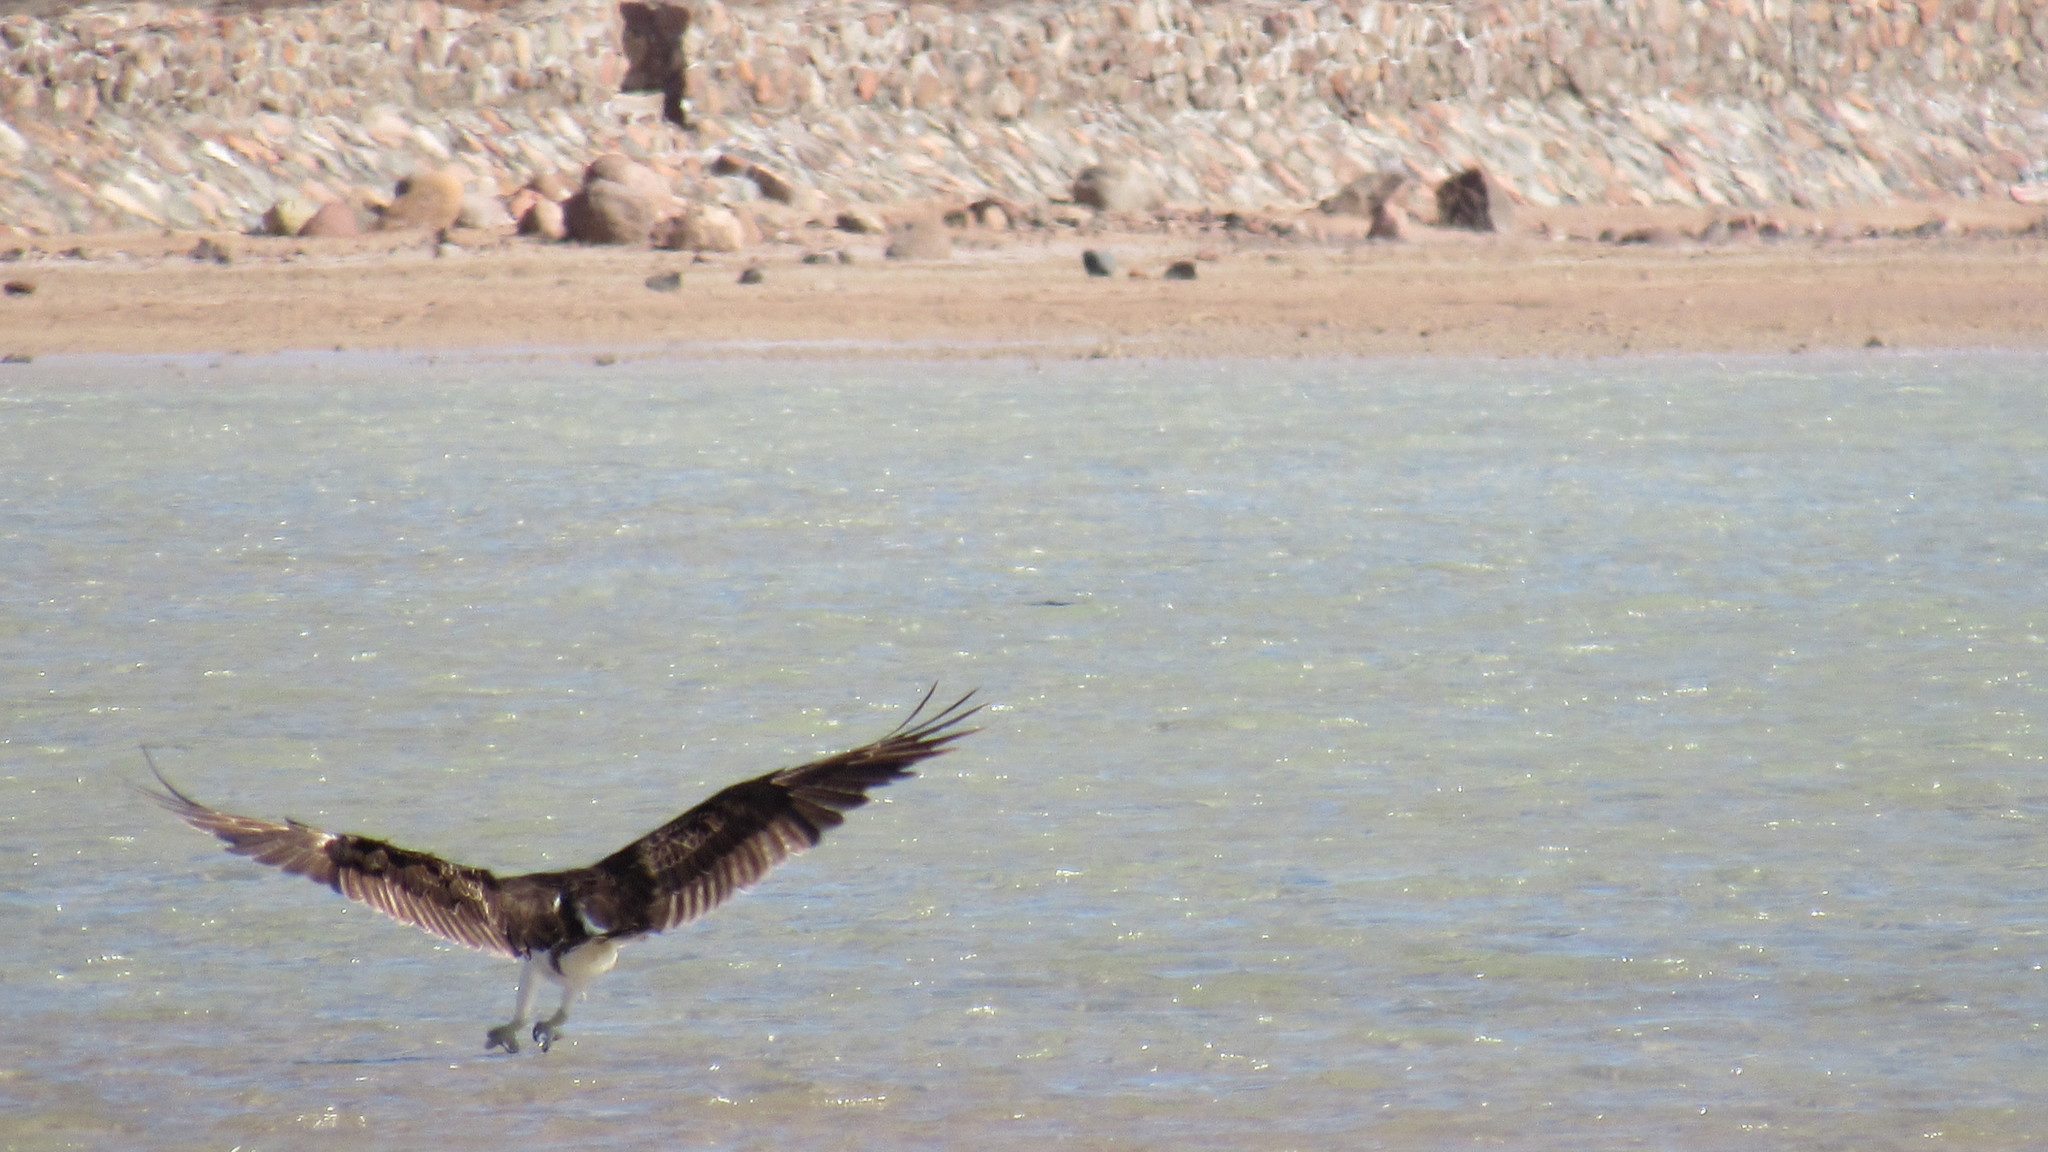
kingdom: Animalia
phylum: Chordata
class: Aves
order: Accipitriformes
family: Pandionidae
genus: Pandion
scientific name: Pandion haliaetus
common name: Osprey
